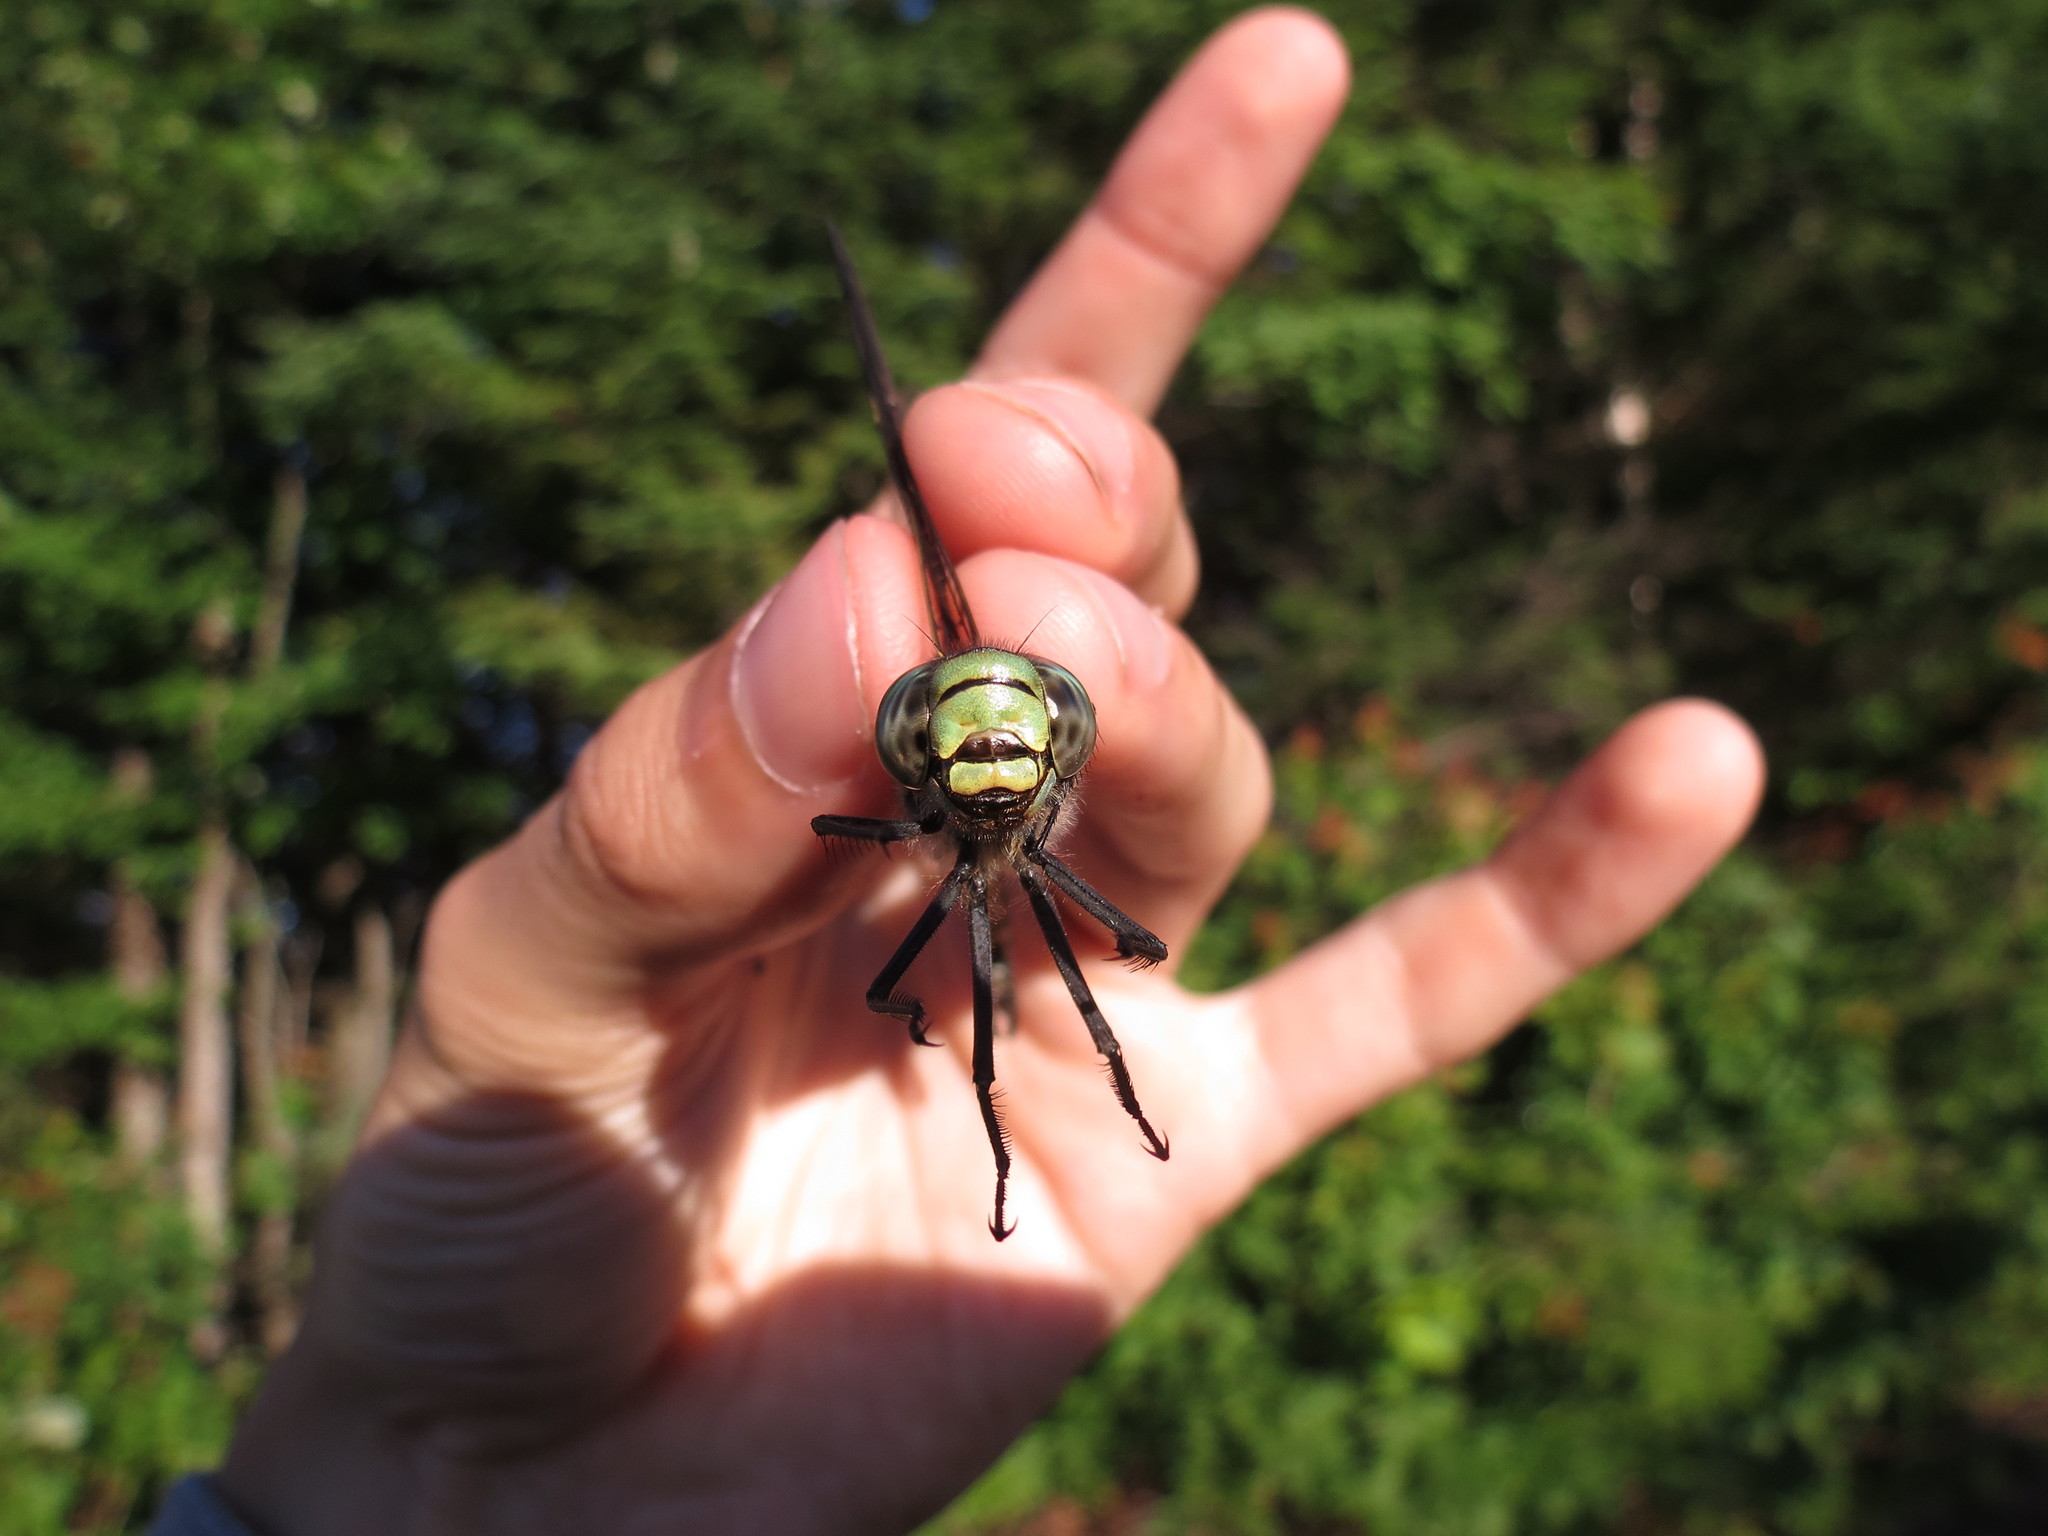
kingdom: Animalia
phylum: Arthropoda
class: Insecta
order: Odonata
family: Aeshnidae
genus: Aeshna
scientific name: Aeshna eremita
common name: Lake darner
